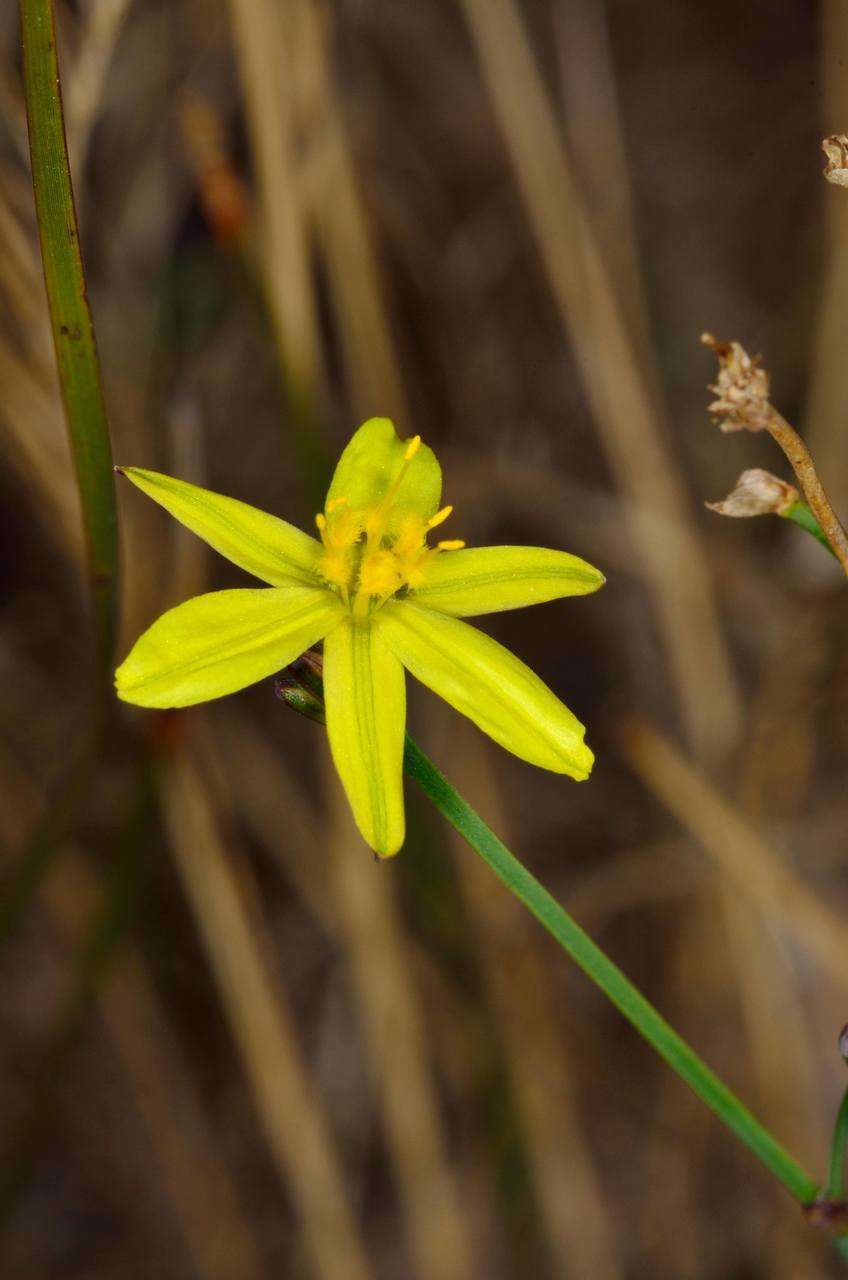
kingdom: Plantae
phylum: Tracheophyta
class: Liliopsida
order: Asparagales
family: Asphodelaceae
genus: Tricoryne
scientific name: Tricoryne elatior
